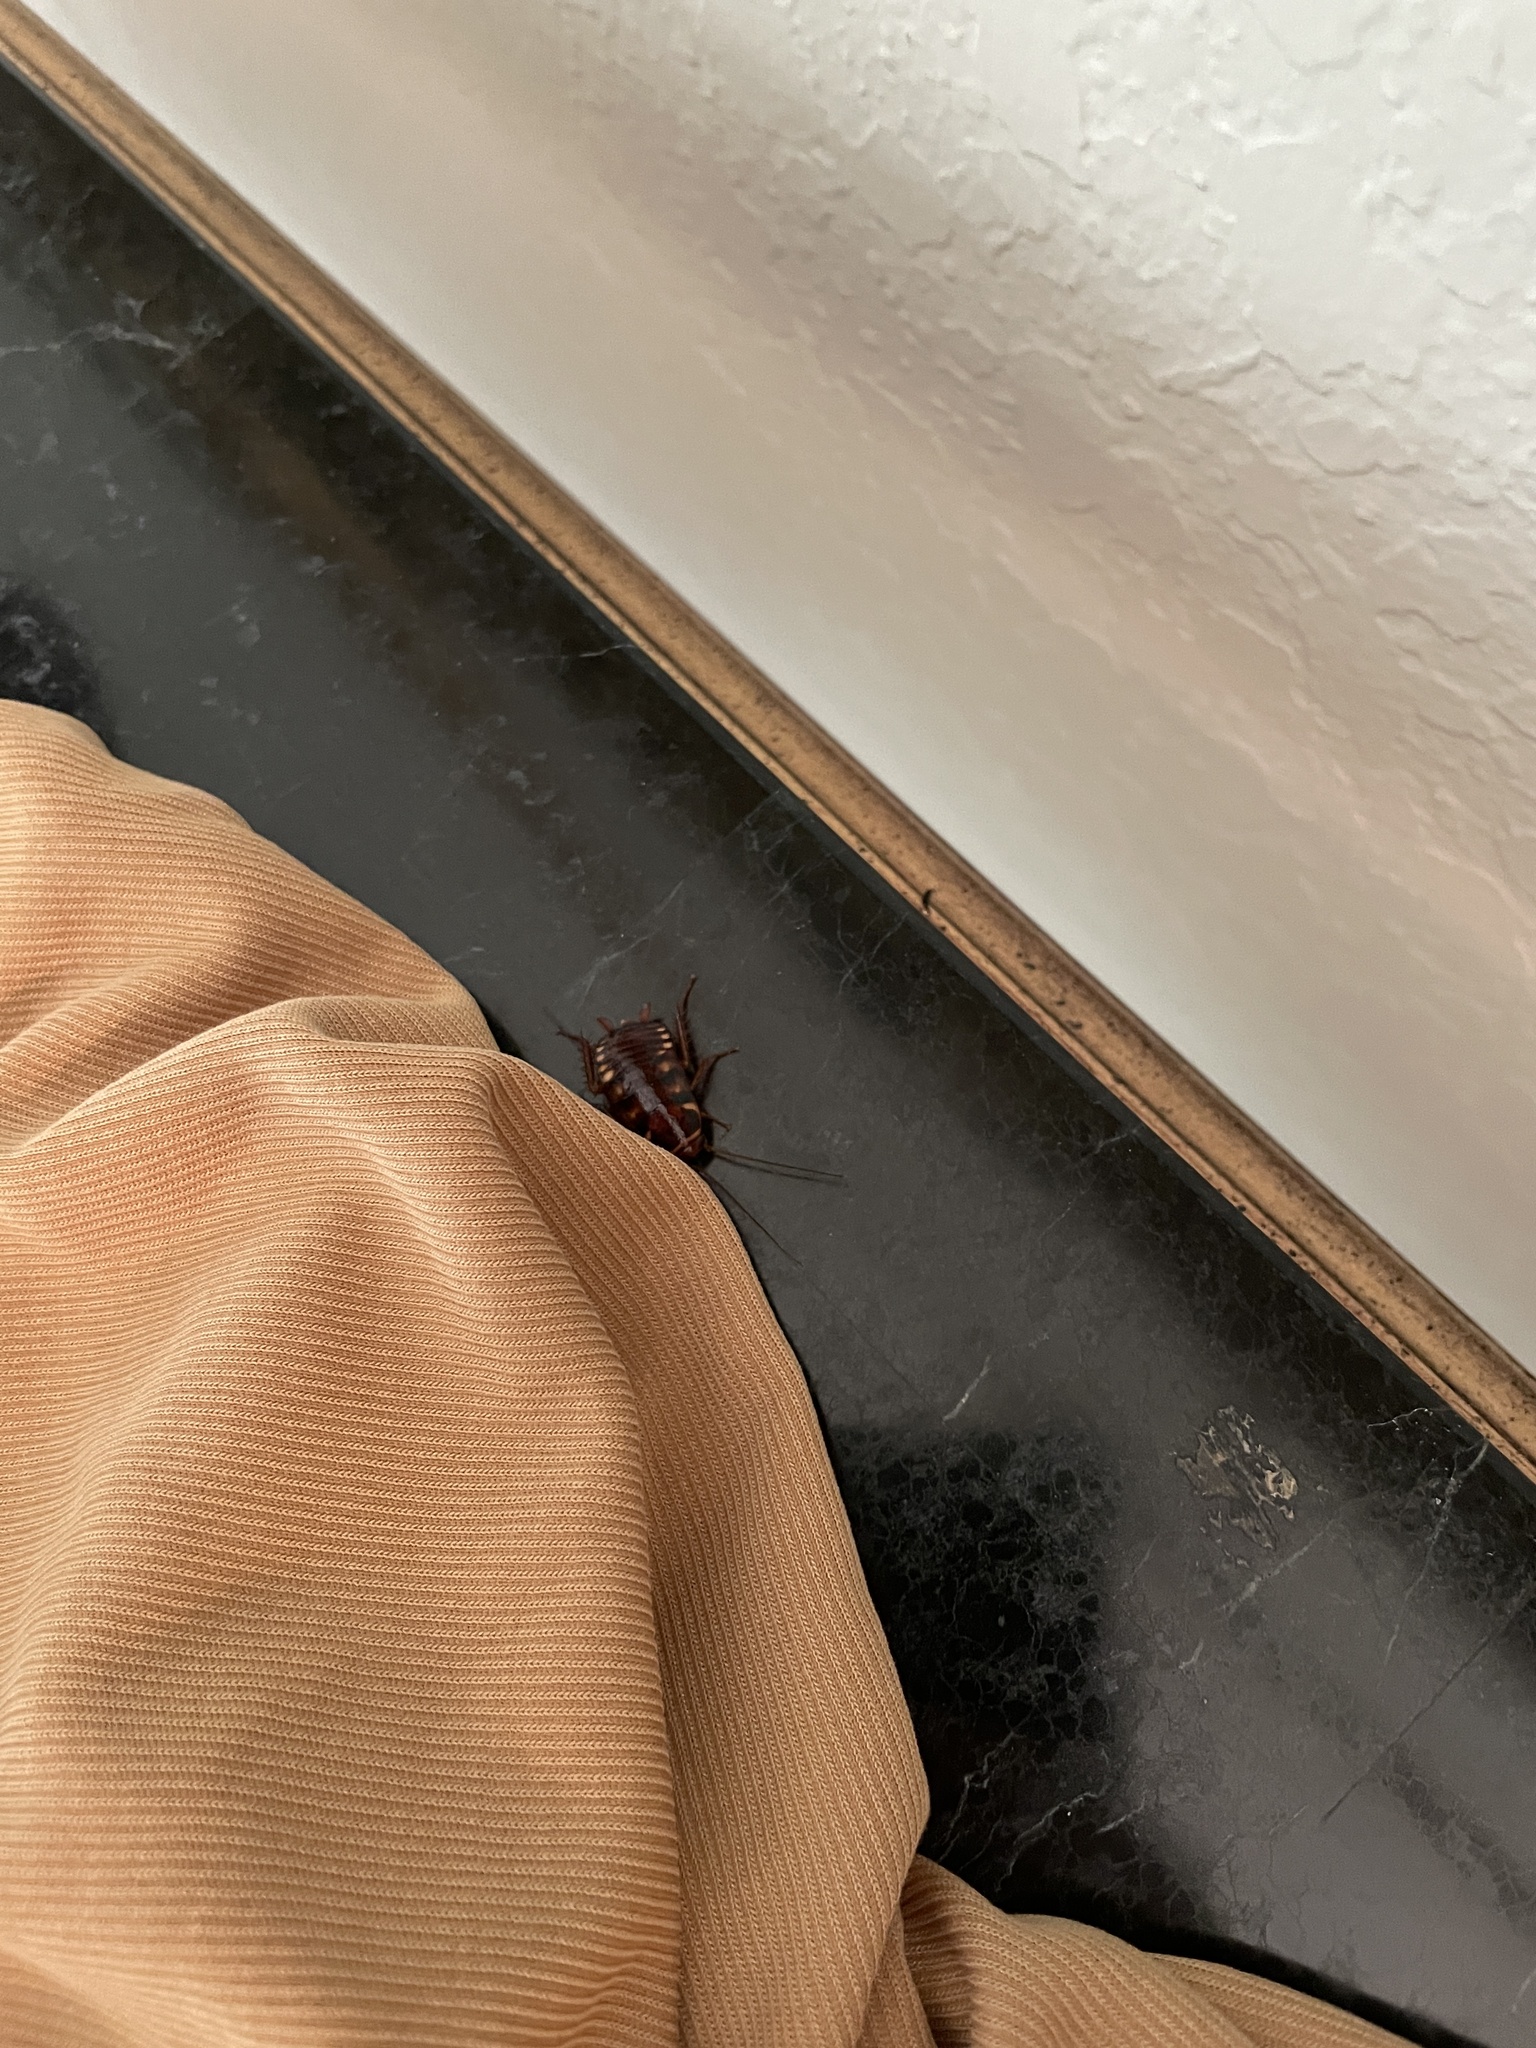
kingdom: Animalia
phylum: Arthropoda
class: Insecta
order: Blattodea
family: Blattidae
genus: Periplaneta
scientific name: Periplaneta australasiae
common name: Australian cockroach
